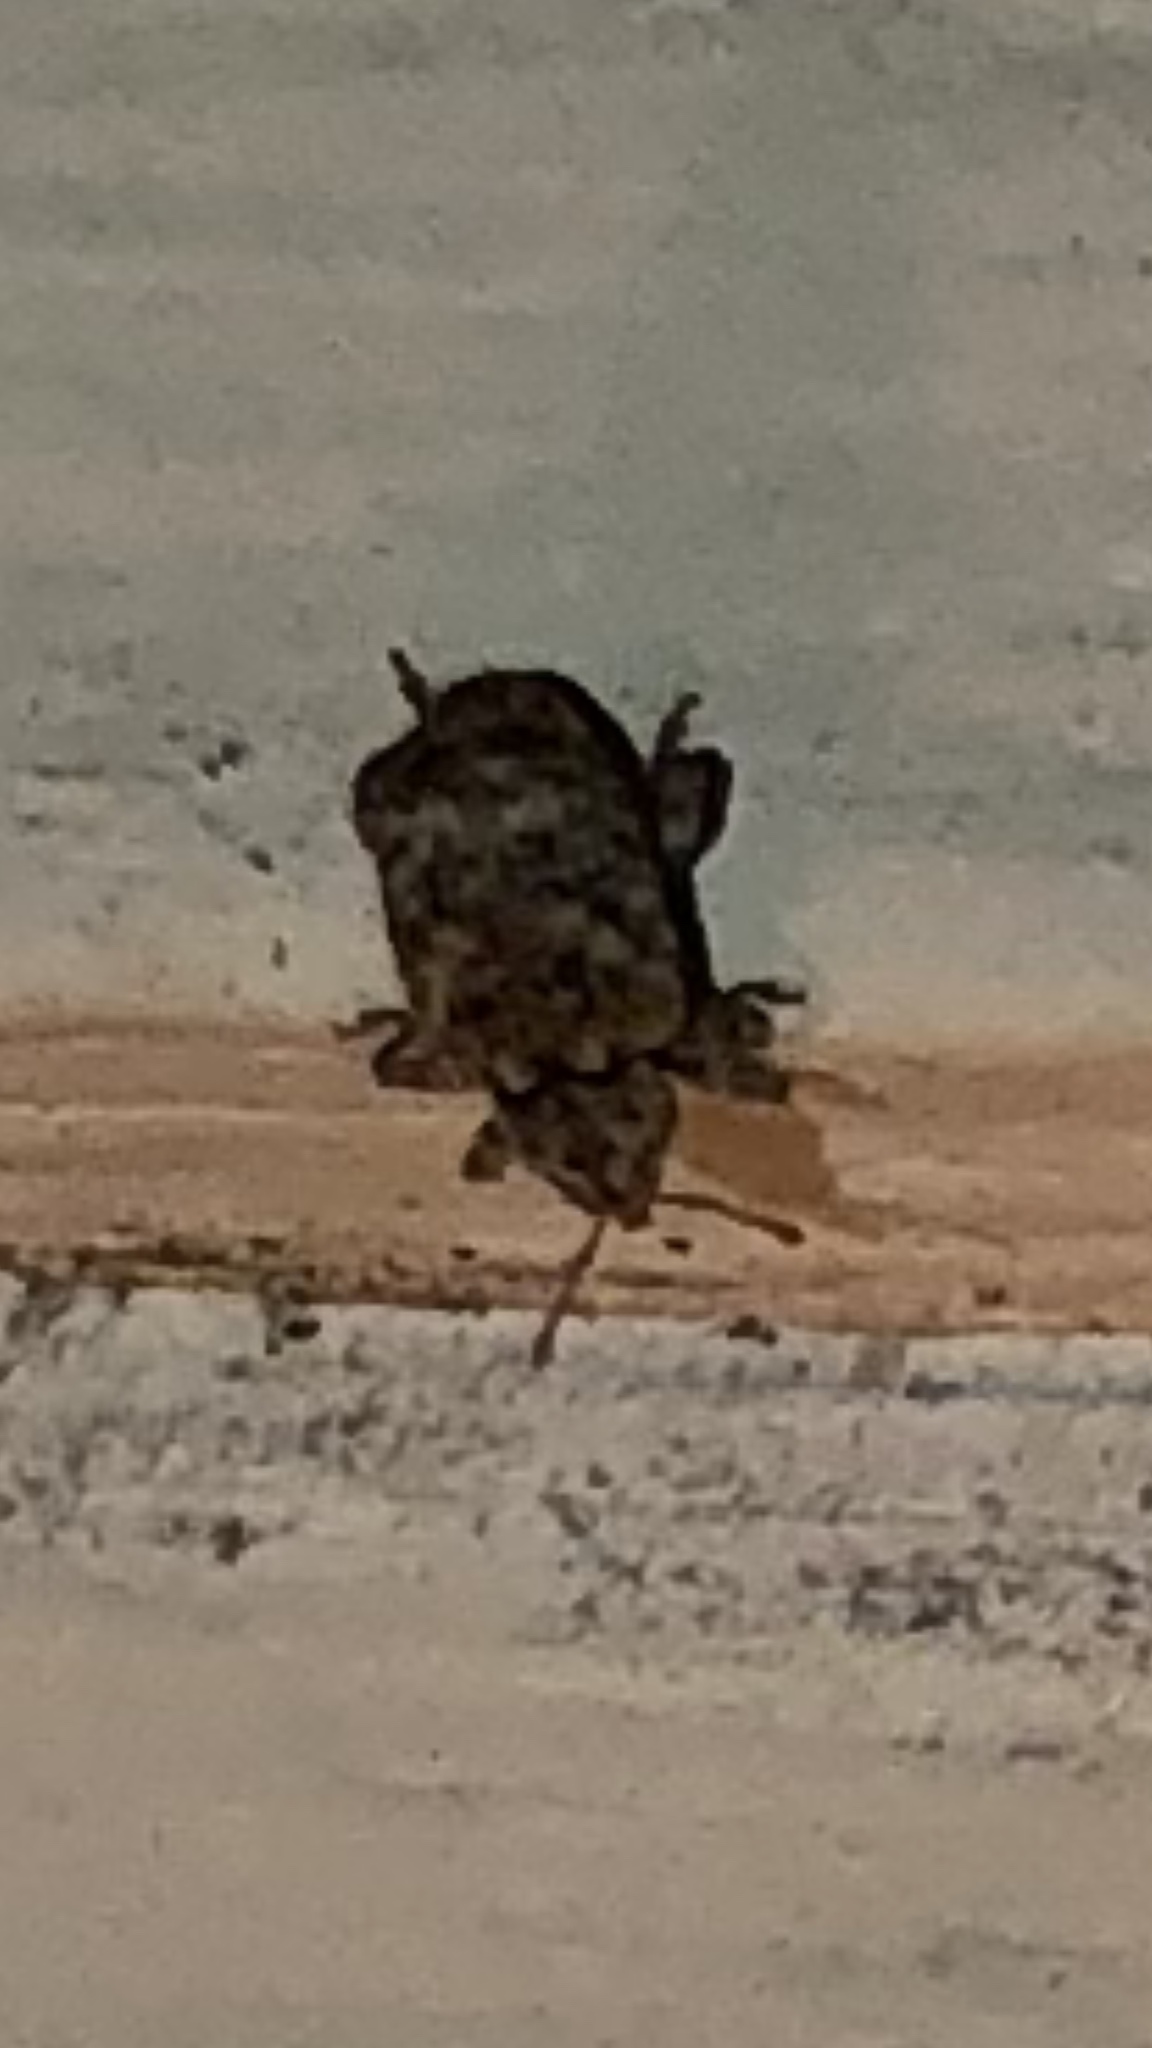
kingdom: Animalia
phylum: Arthropoda
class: Insecta
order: Coleoptera
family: Curculionidae
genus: Conotrachelus
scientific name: Conotrachelus recessus
